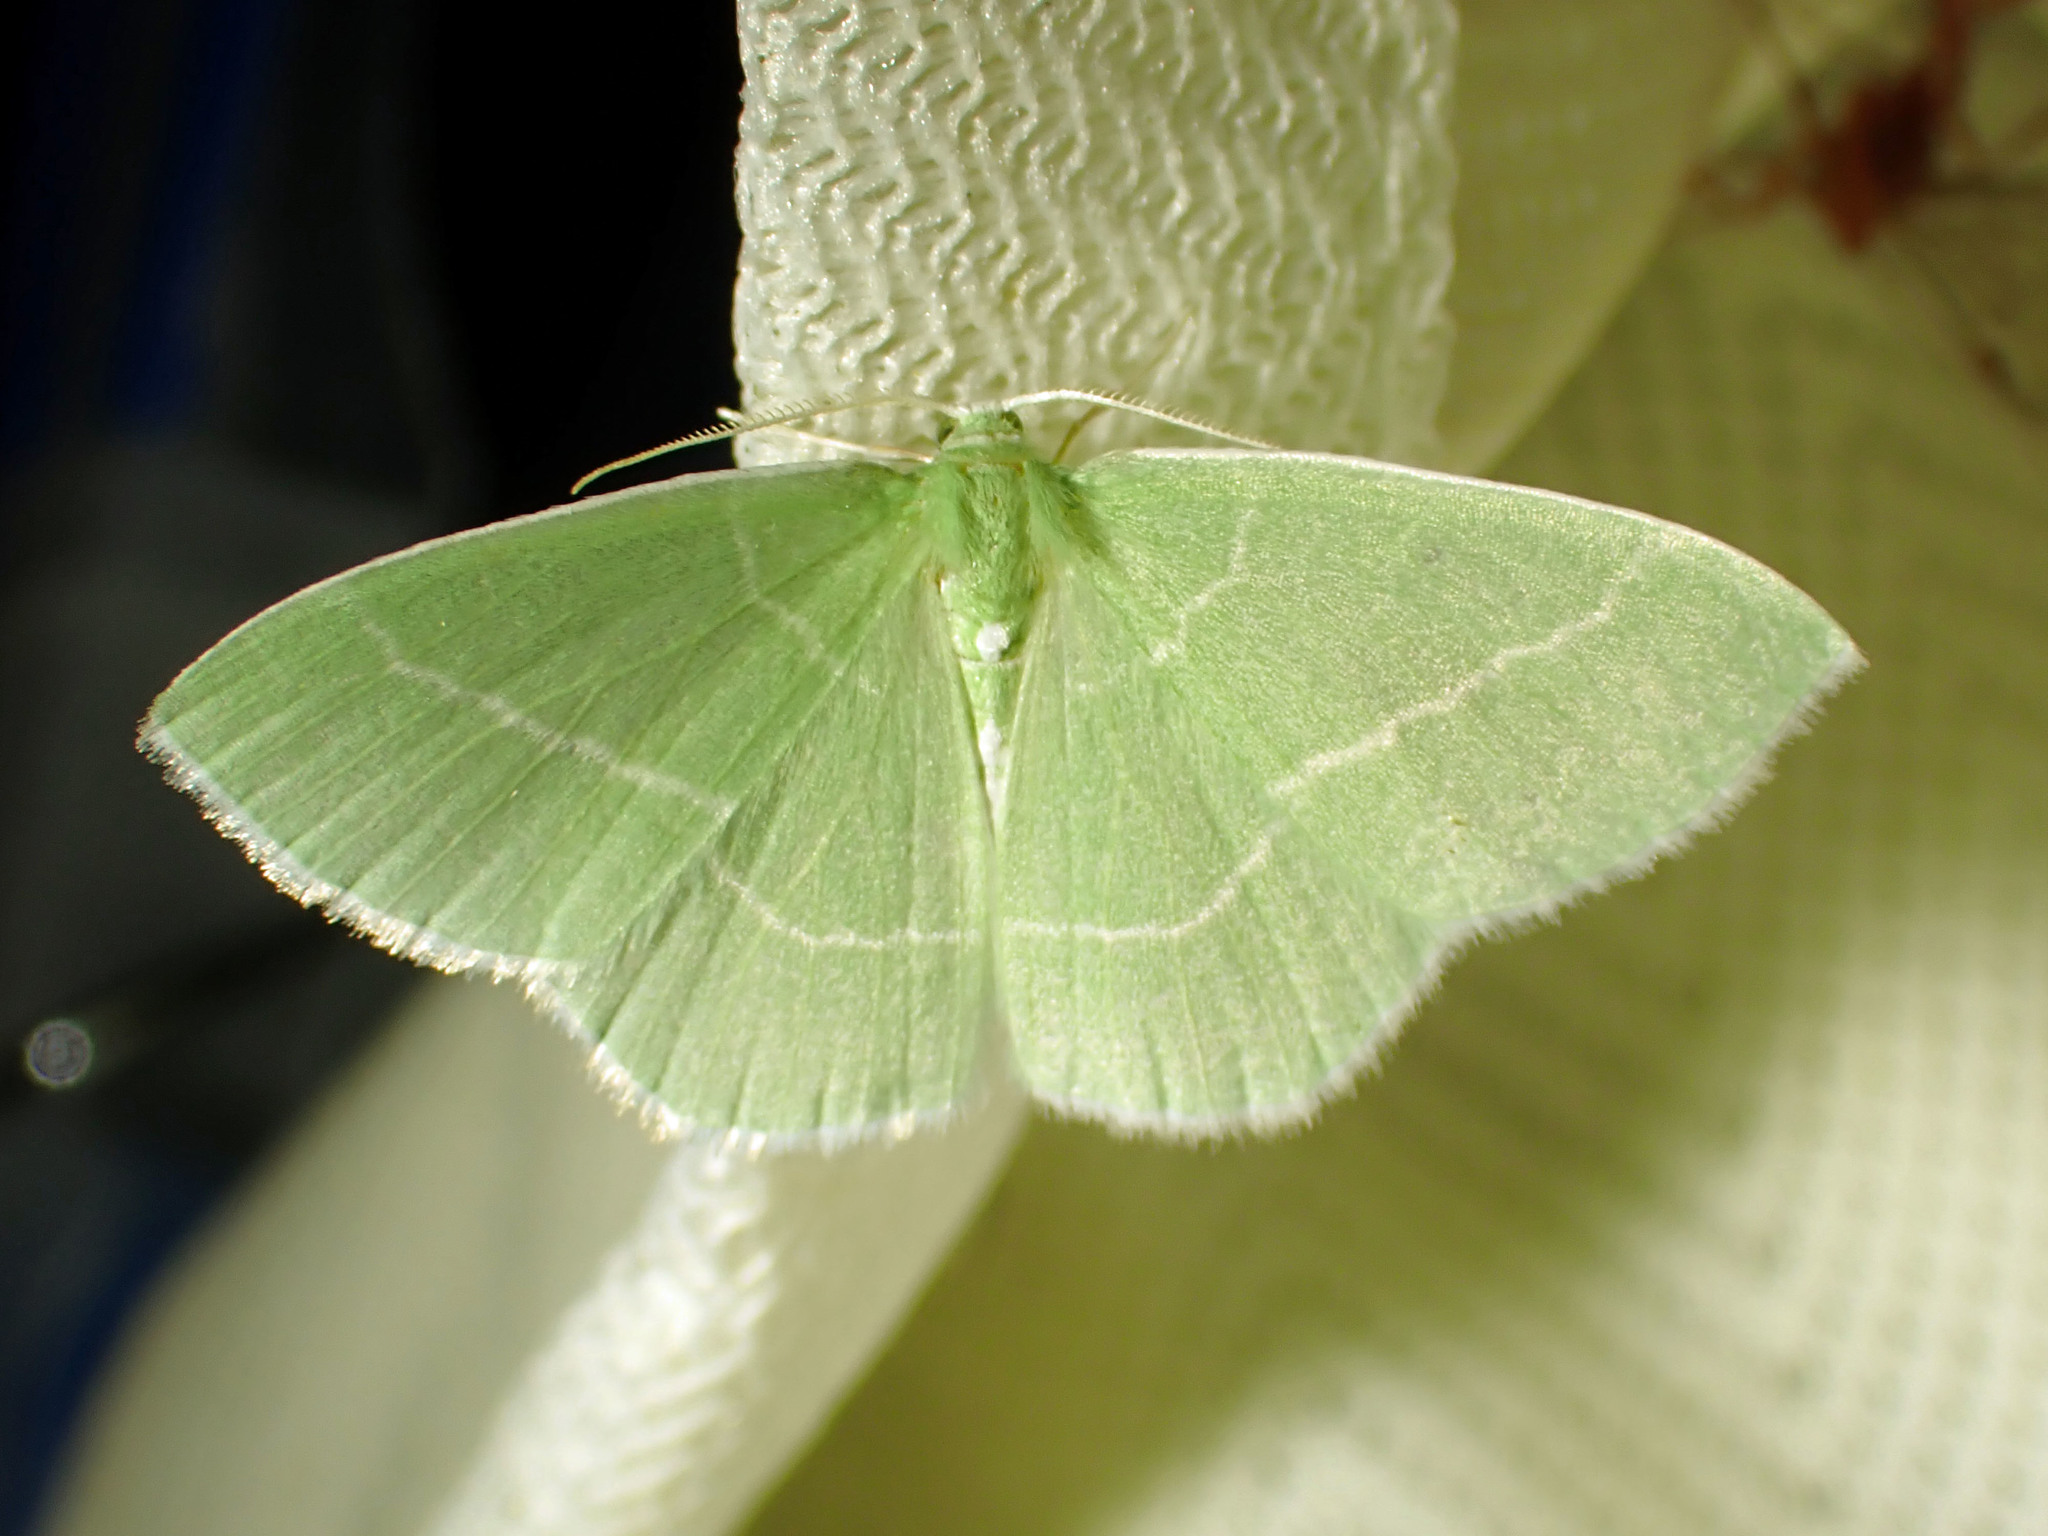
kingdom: Animalia
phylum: Arthropoda
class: Insecta
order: Lepidoptera
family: Geometridae
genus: Nemoria
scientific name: Nemoria mimosaria
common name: White-fringed emerald
